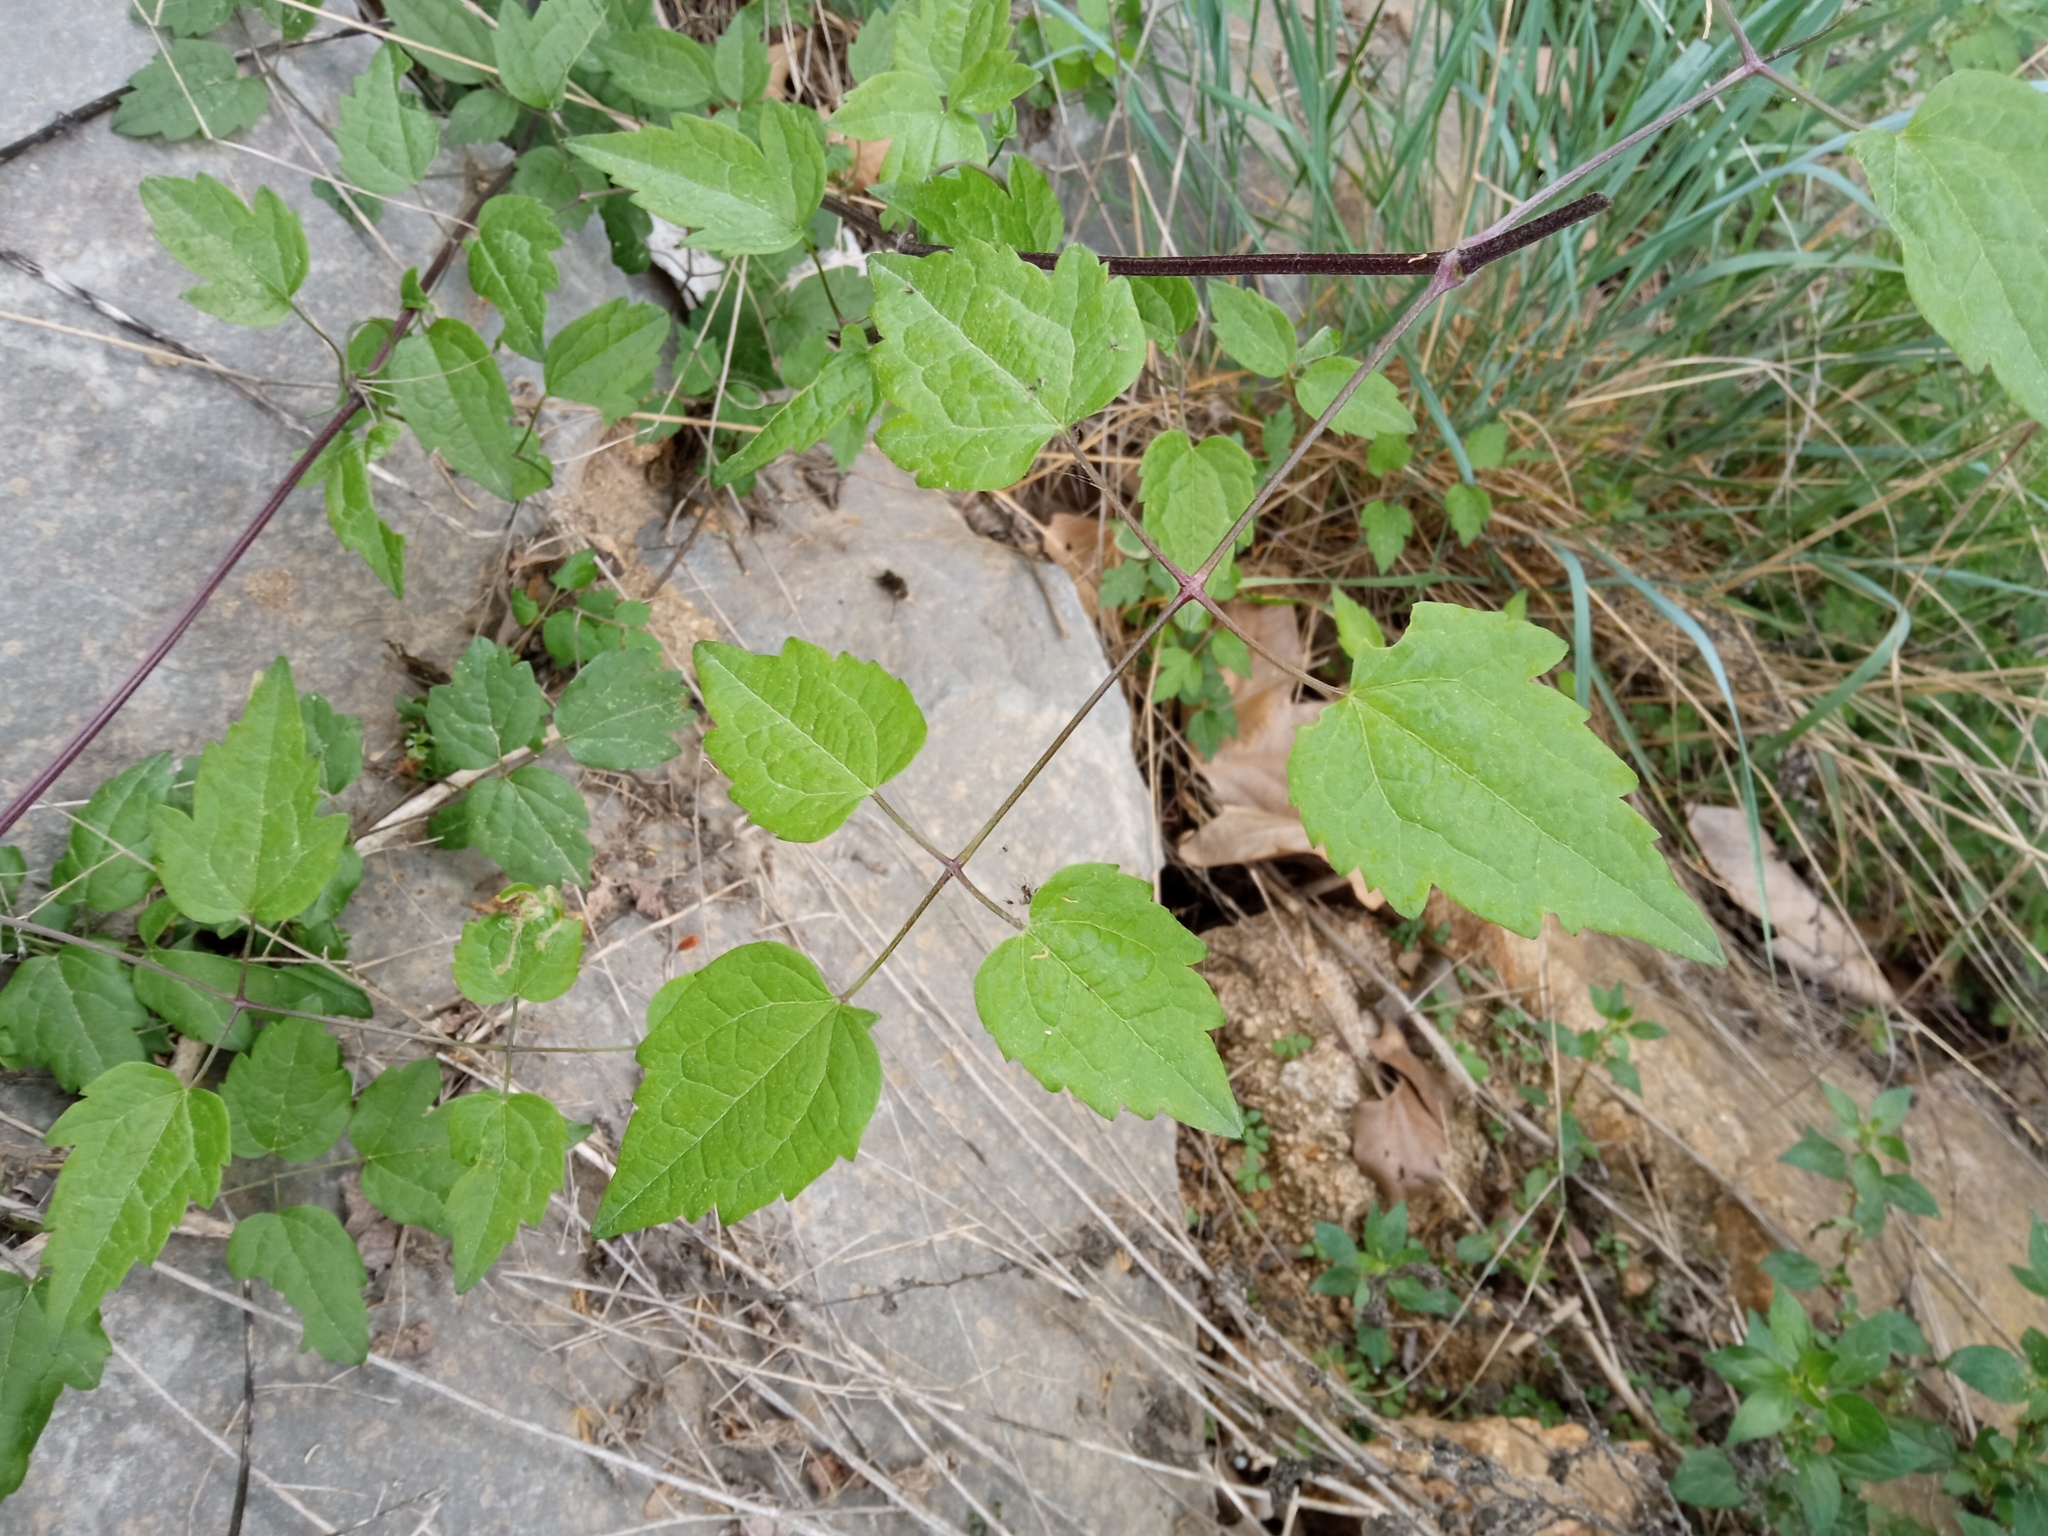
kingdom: Plantae
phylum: Tracheophyta
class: Magnoliopsida
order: Ranunculales
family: Ranunculaceae
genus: Clematis
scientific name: Clematis vitalba
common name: Evergreen clematis
